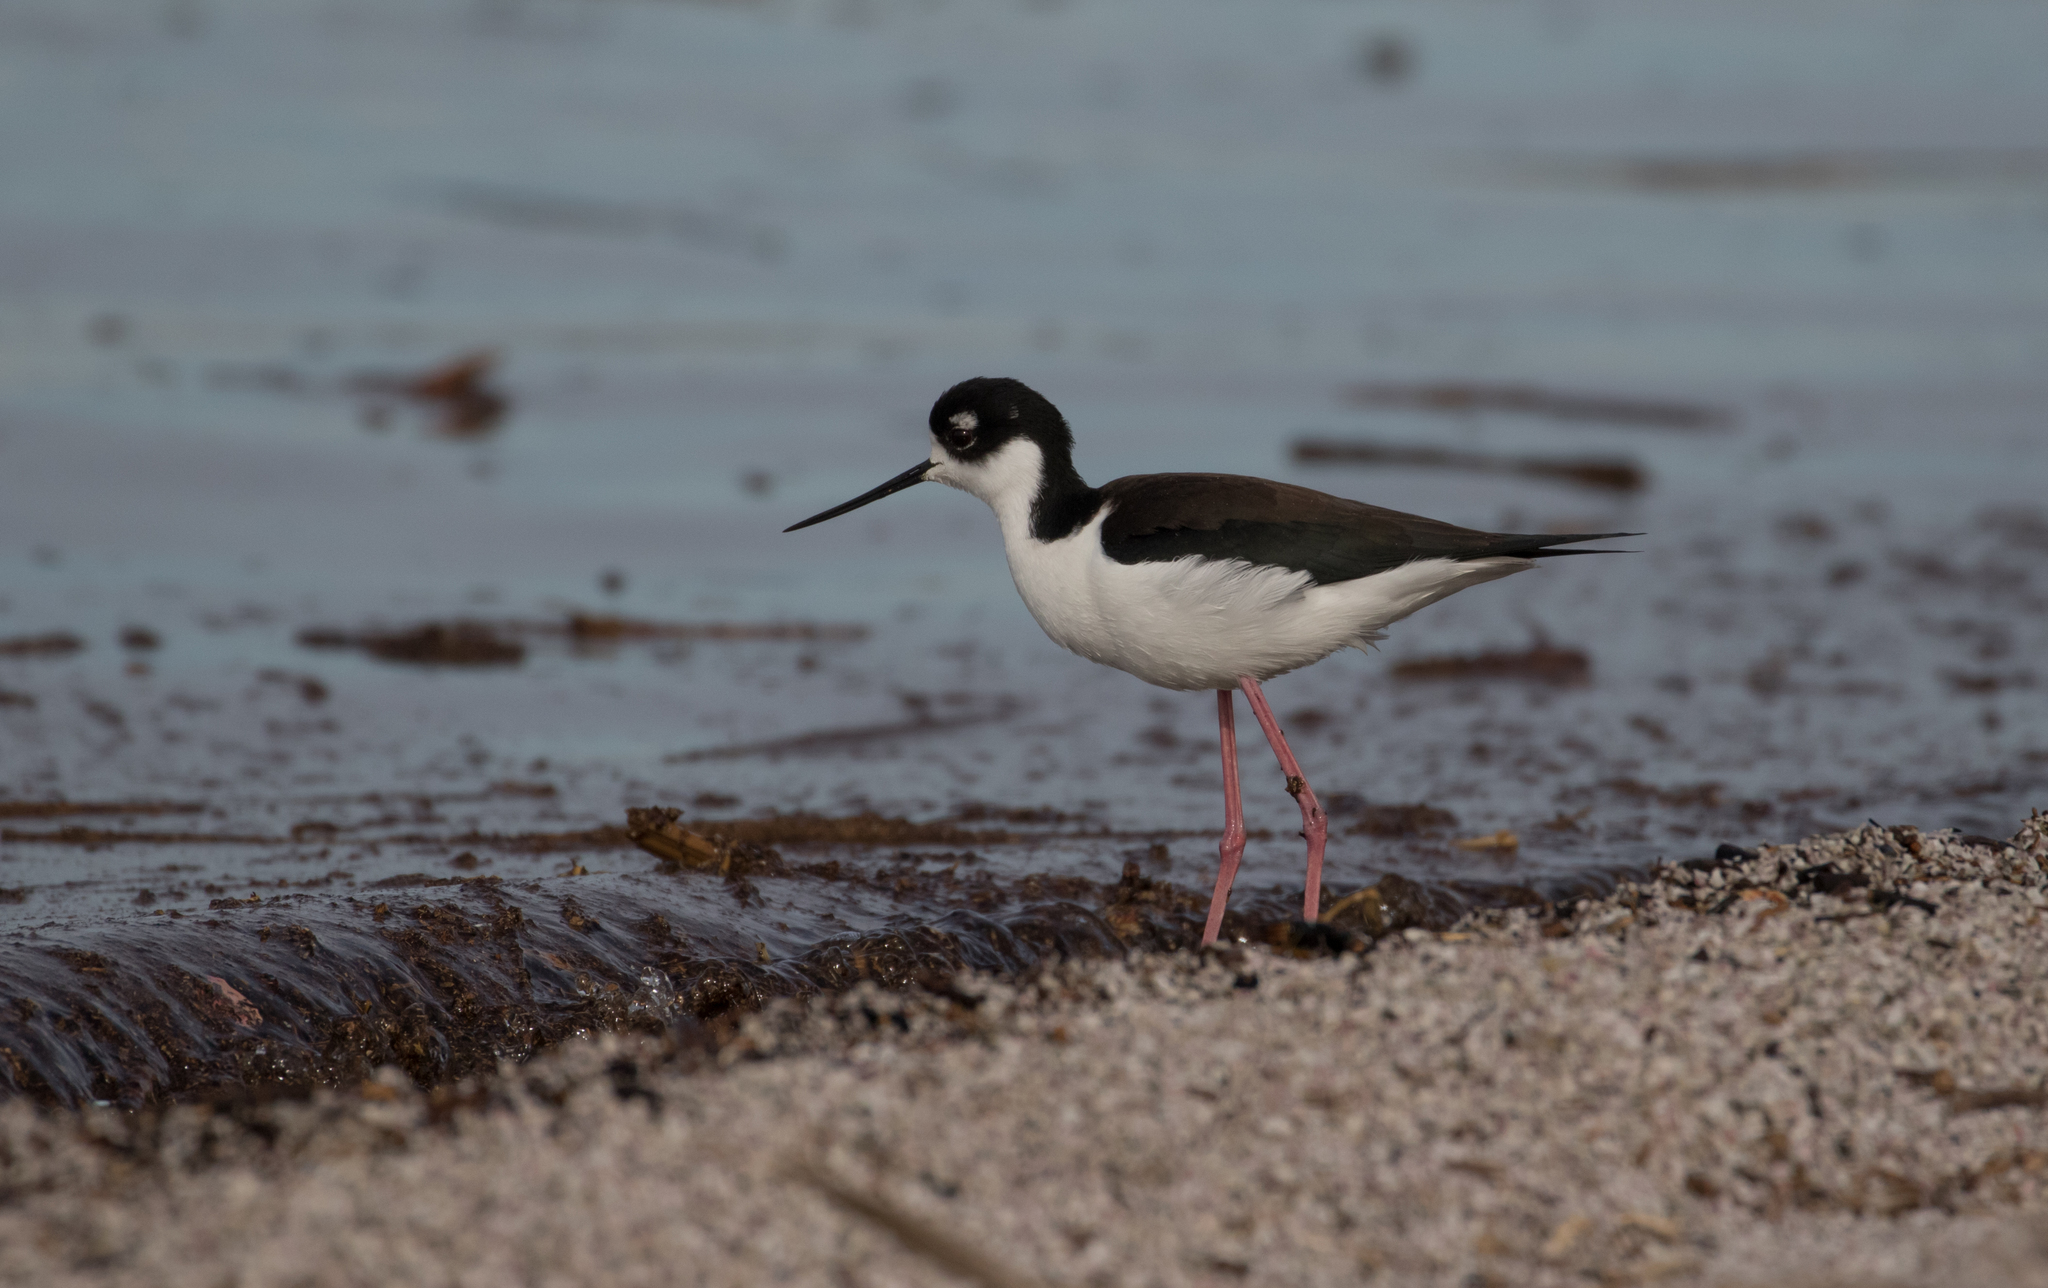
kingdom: Animalia
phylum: Chordata
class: Aves
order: Charadriiformes
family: Recurvirostridae
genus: Himantopus
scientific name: Himantopus mexicanus
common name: Black-necked stilt
